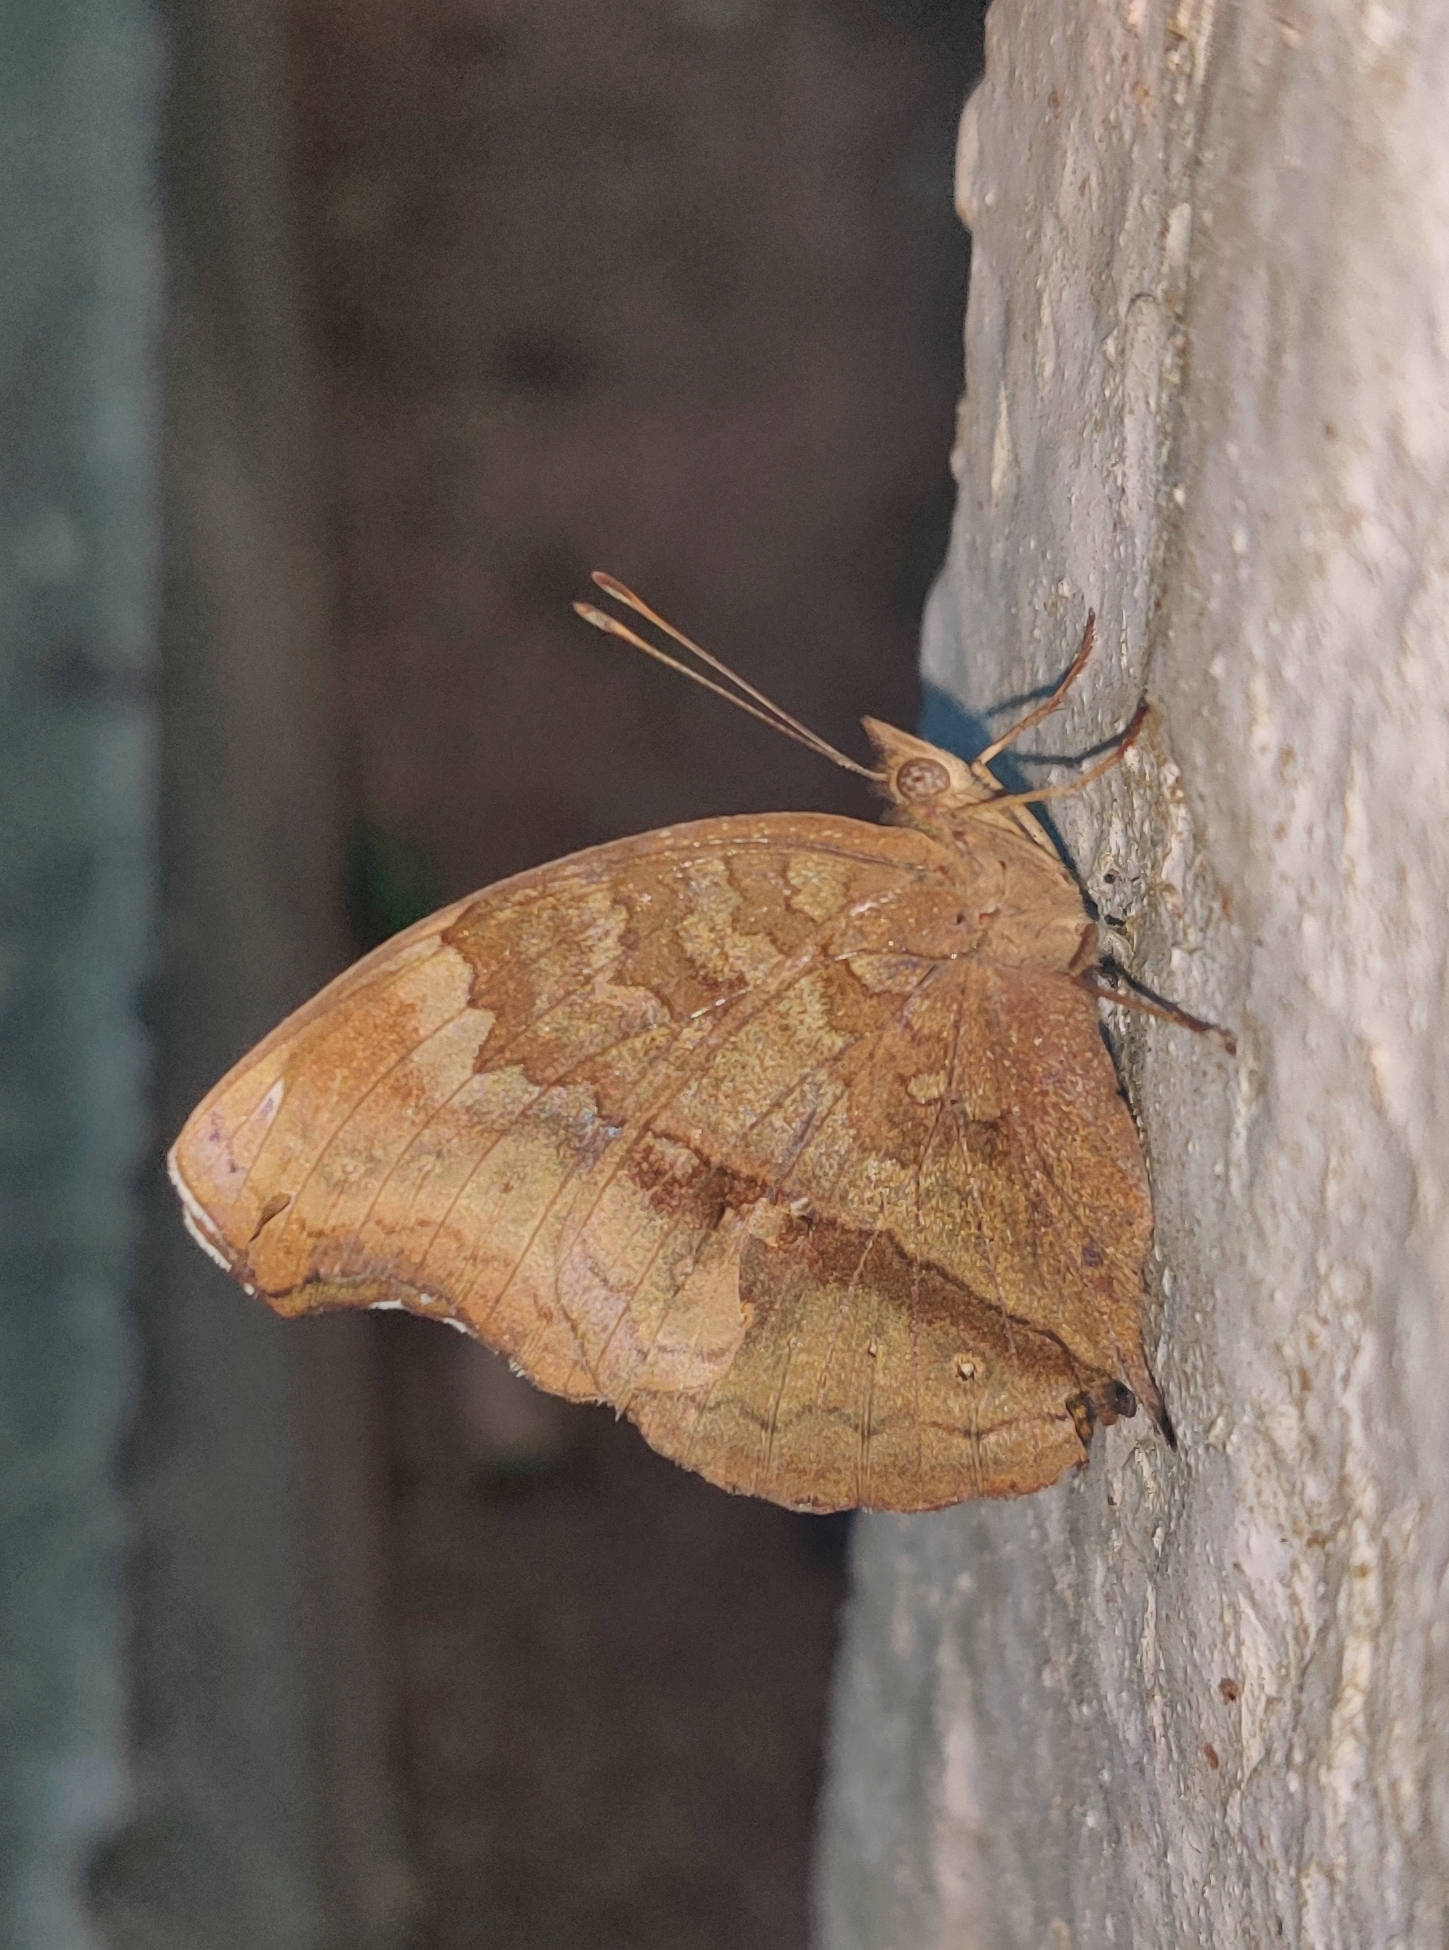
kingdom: Animalia
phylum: Arthropoda
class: Insecta
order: Lepidoptera
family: Nymphalidae
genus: Junonia
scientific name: Junonia iphita
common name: Chocolate pansy
